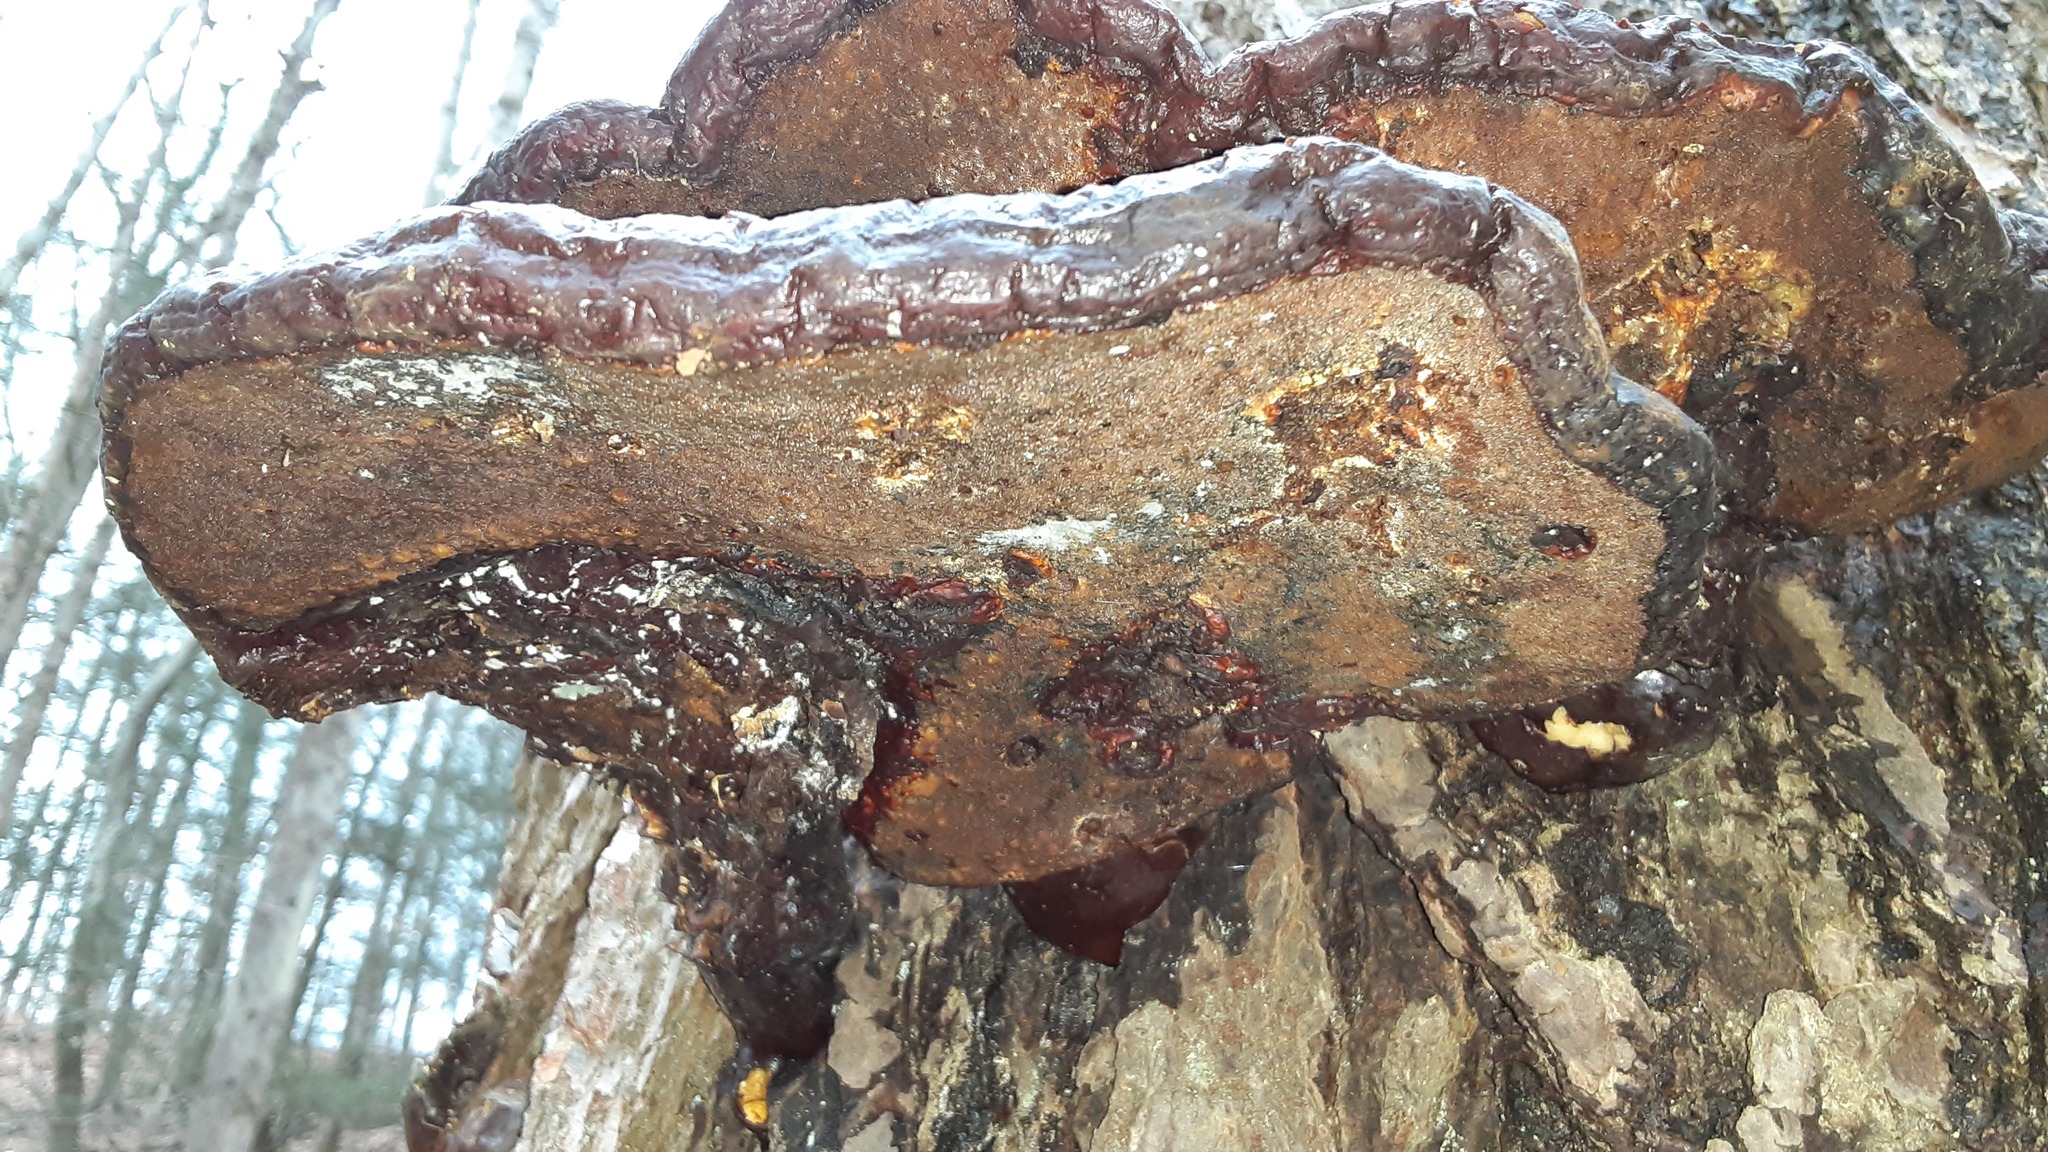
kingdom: Fungi
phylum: Basidiomycota
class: Agaricomycetes
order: Polyporales
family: Polyporaceae
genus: Ganoderma
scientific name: Ganoderma tsugae
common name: Hemlock varnish shelf
